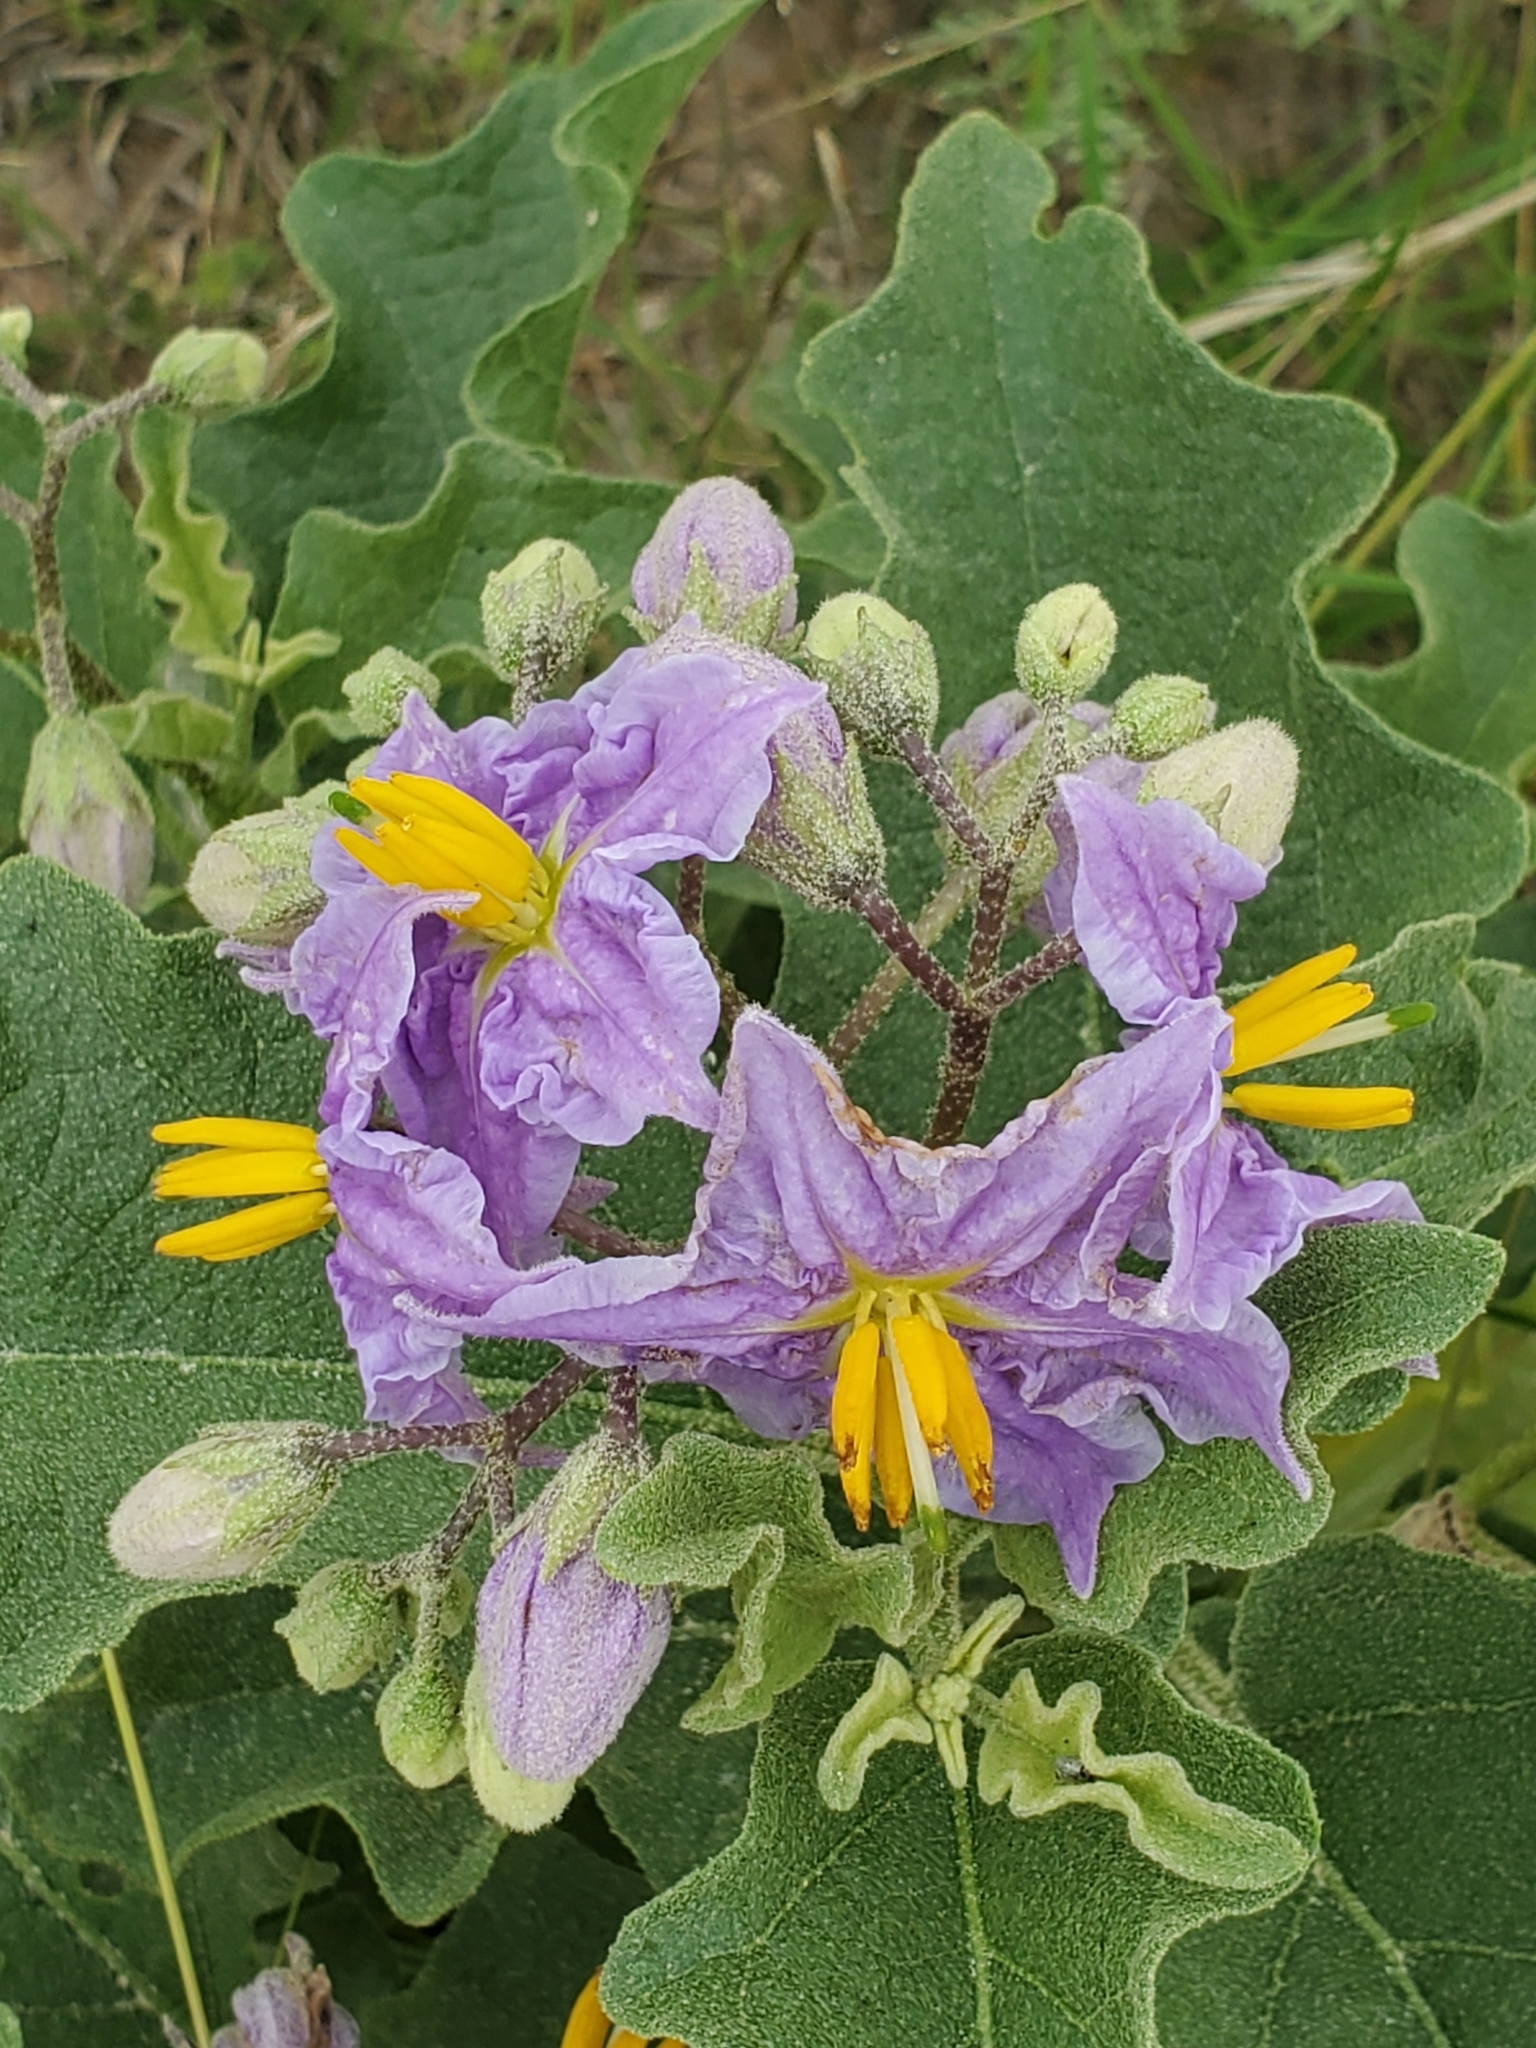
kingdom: Plantae
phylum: Tracheophyta
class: Magnoliopsida
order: Solanales
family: Solanaceae
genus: Solanum
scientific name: Solanum dimidiatum
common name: Carolina horse-nettle
